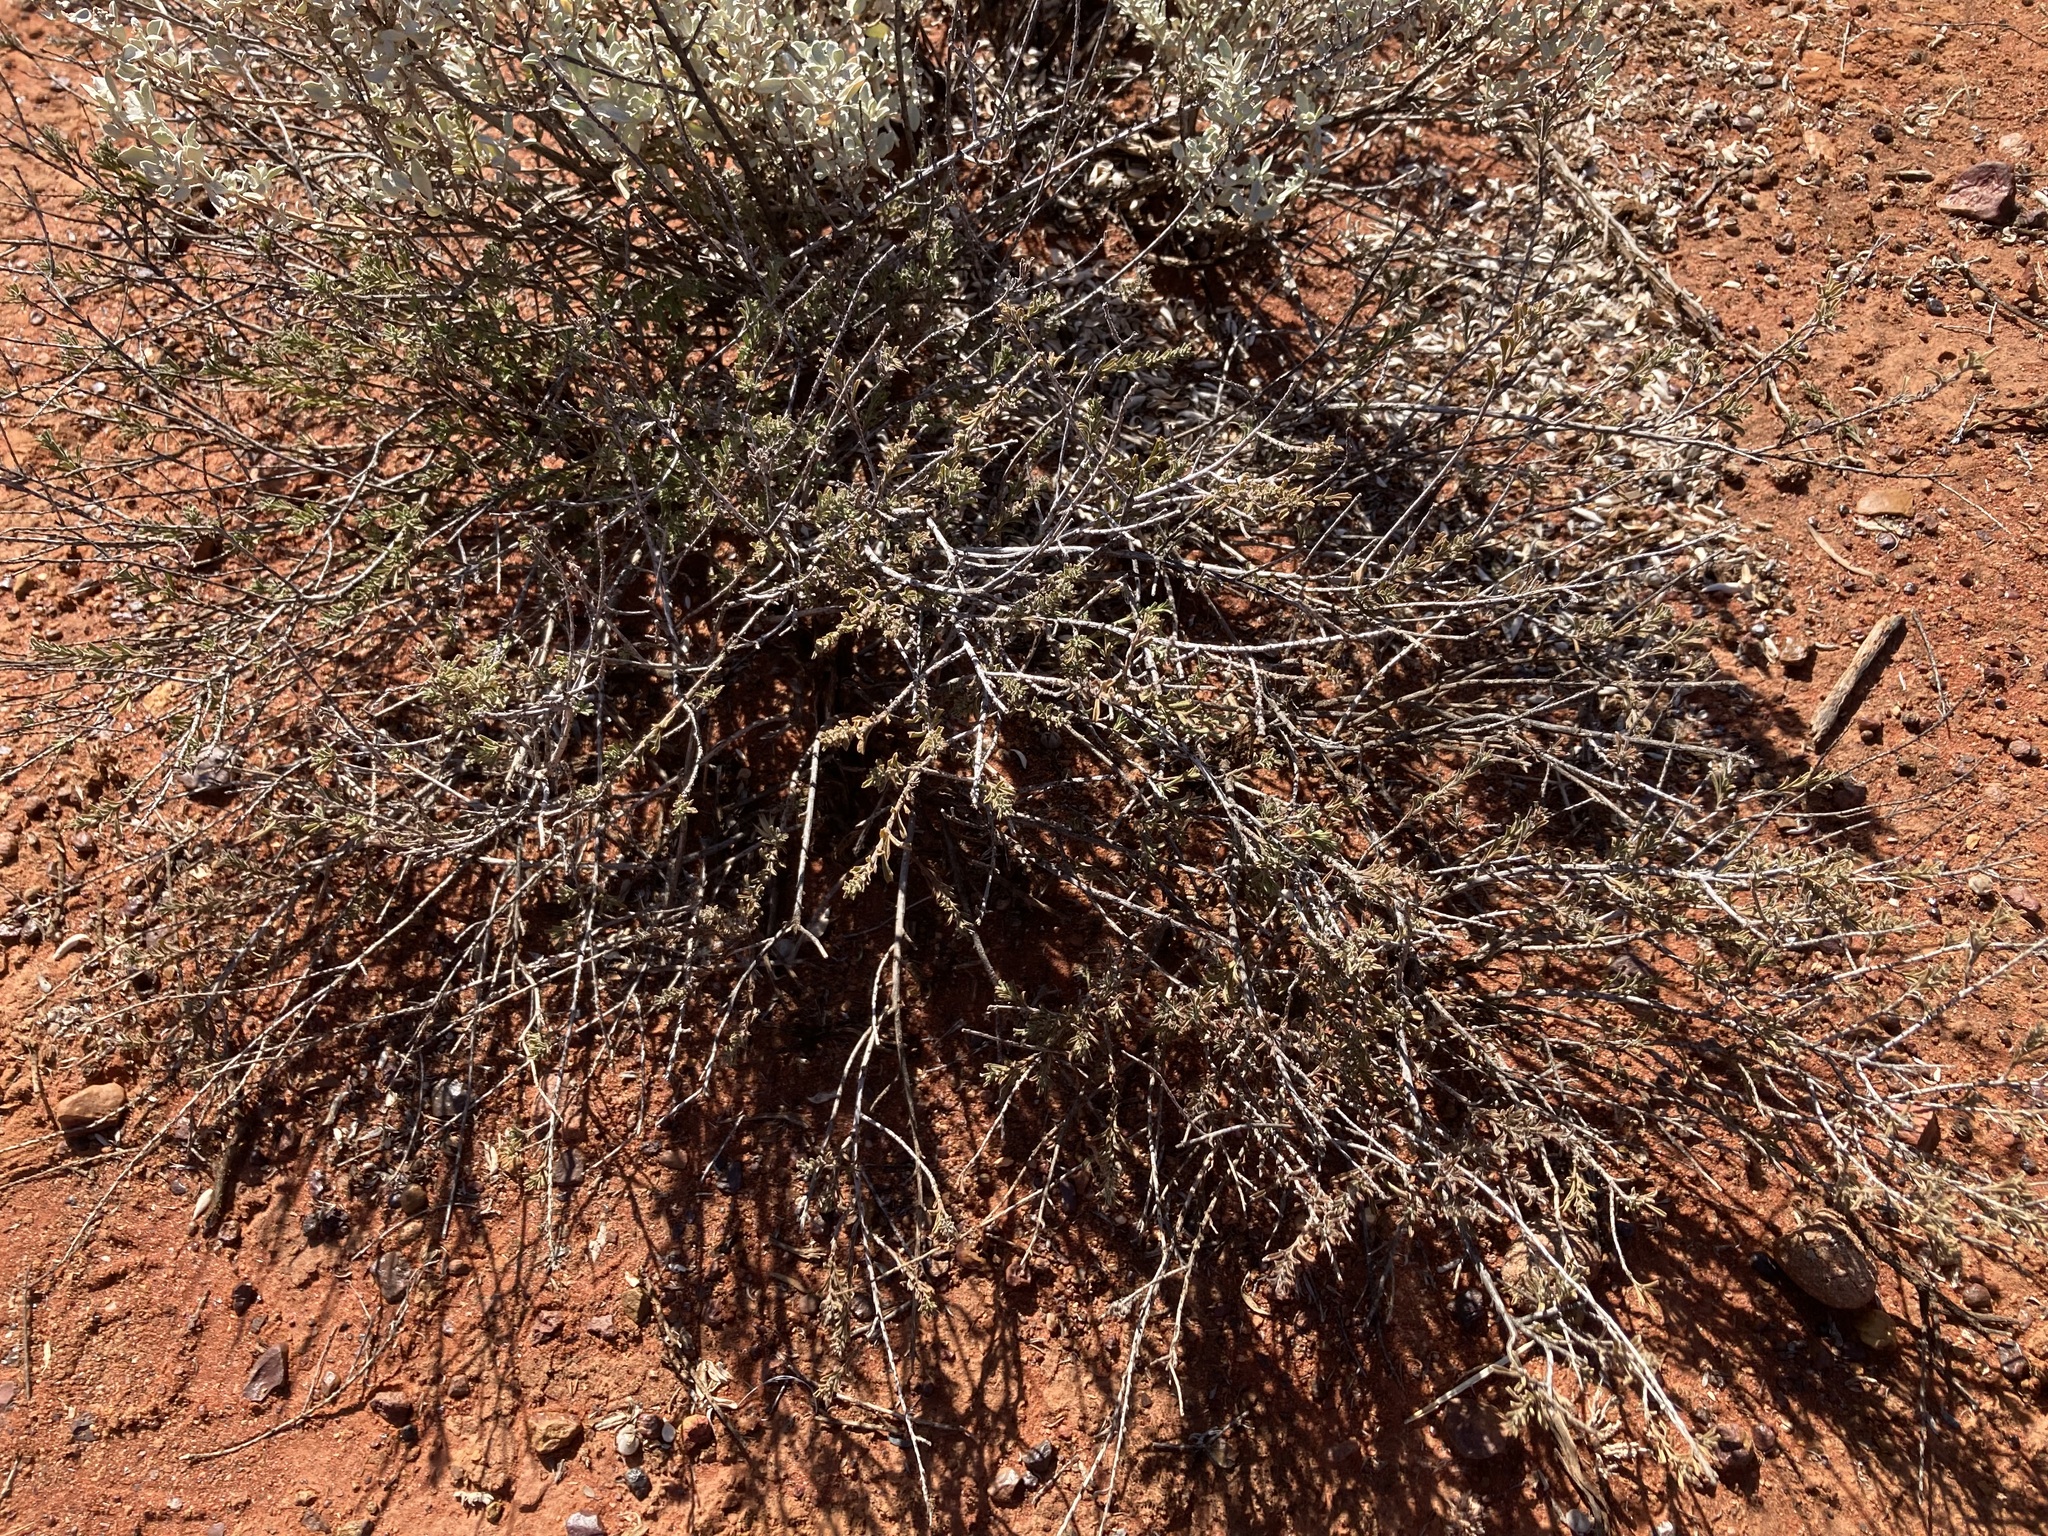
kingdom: Plantae
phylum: Tracheophyta
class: Magnoliopsida
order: Lamiales
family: Scrophulariaceae
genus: Eremophila
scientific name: Eremophila battii
